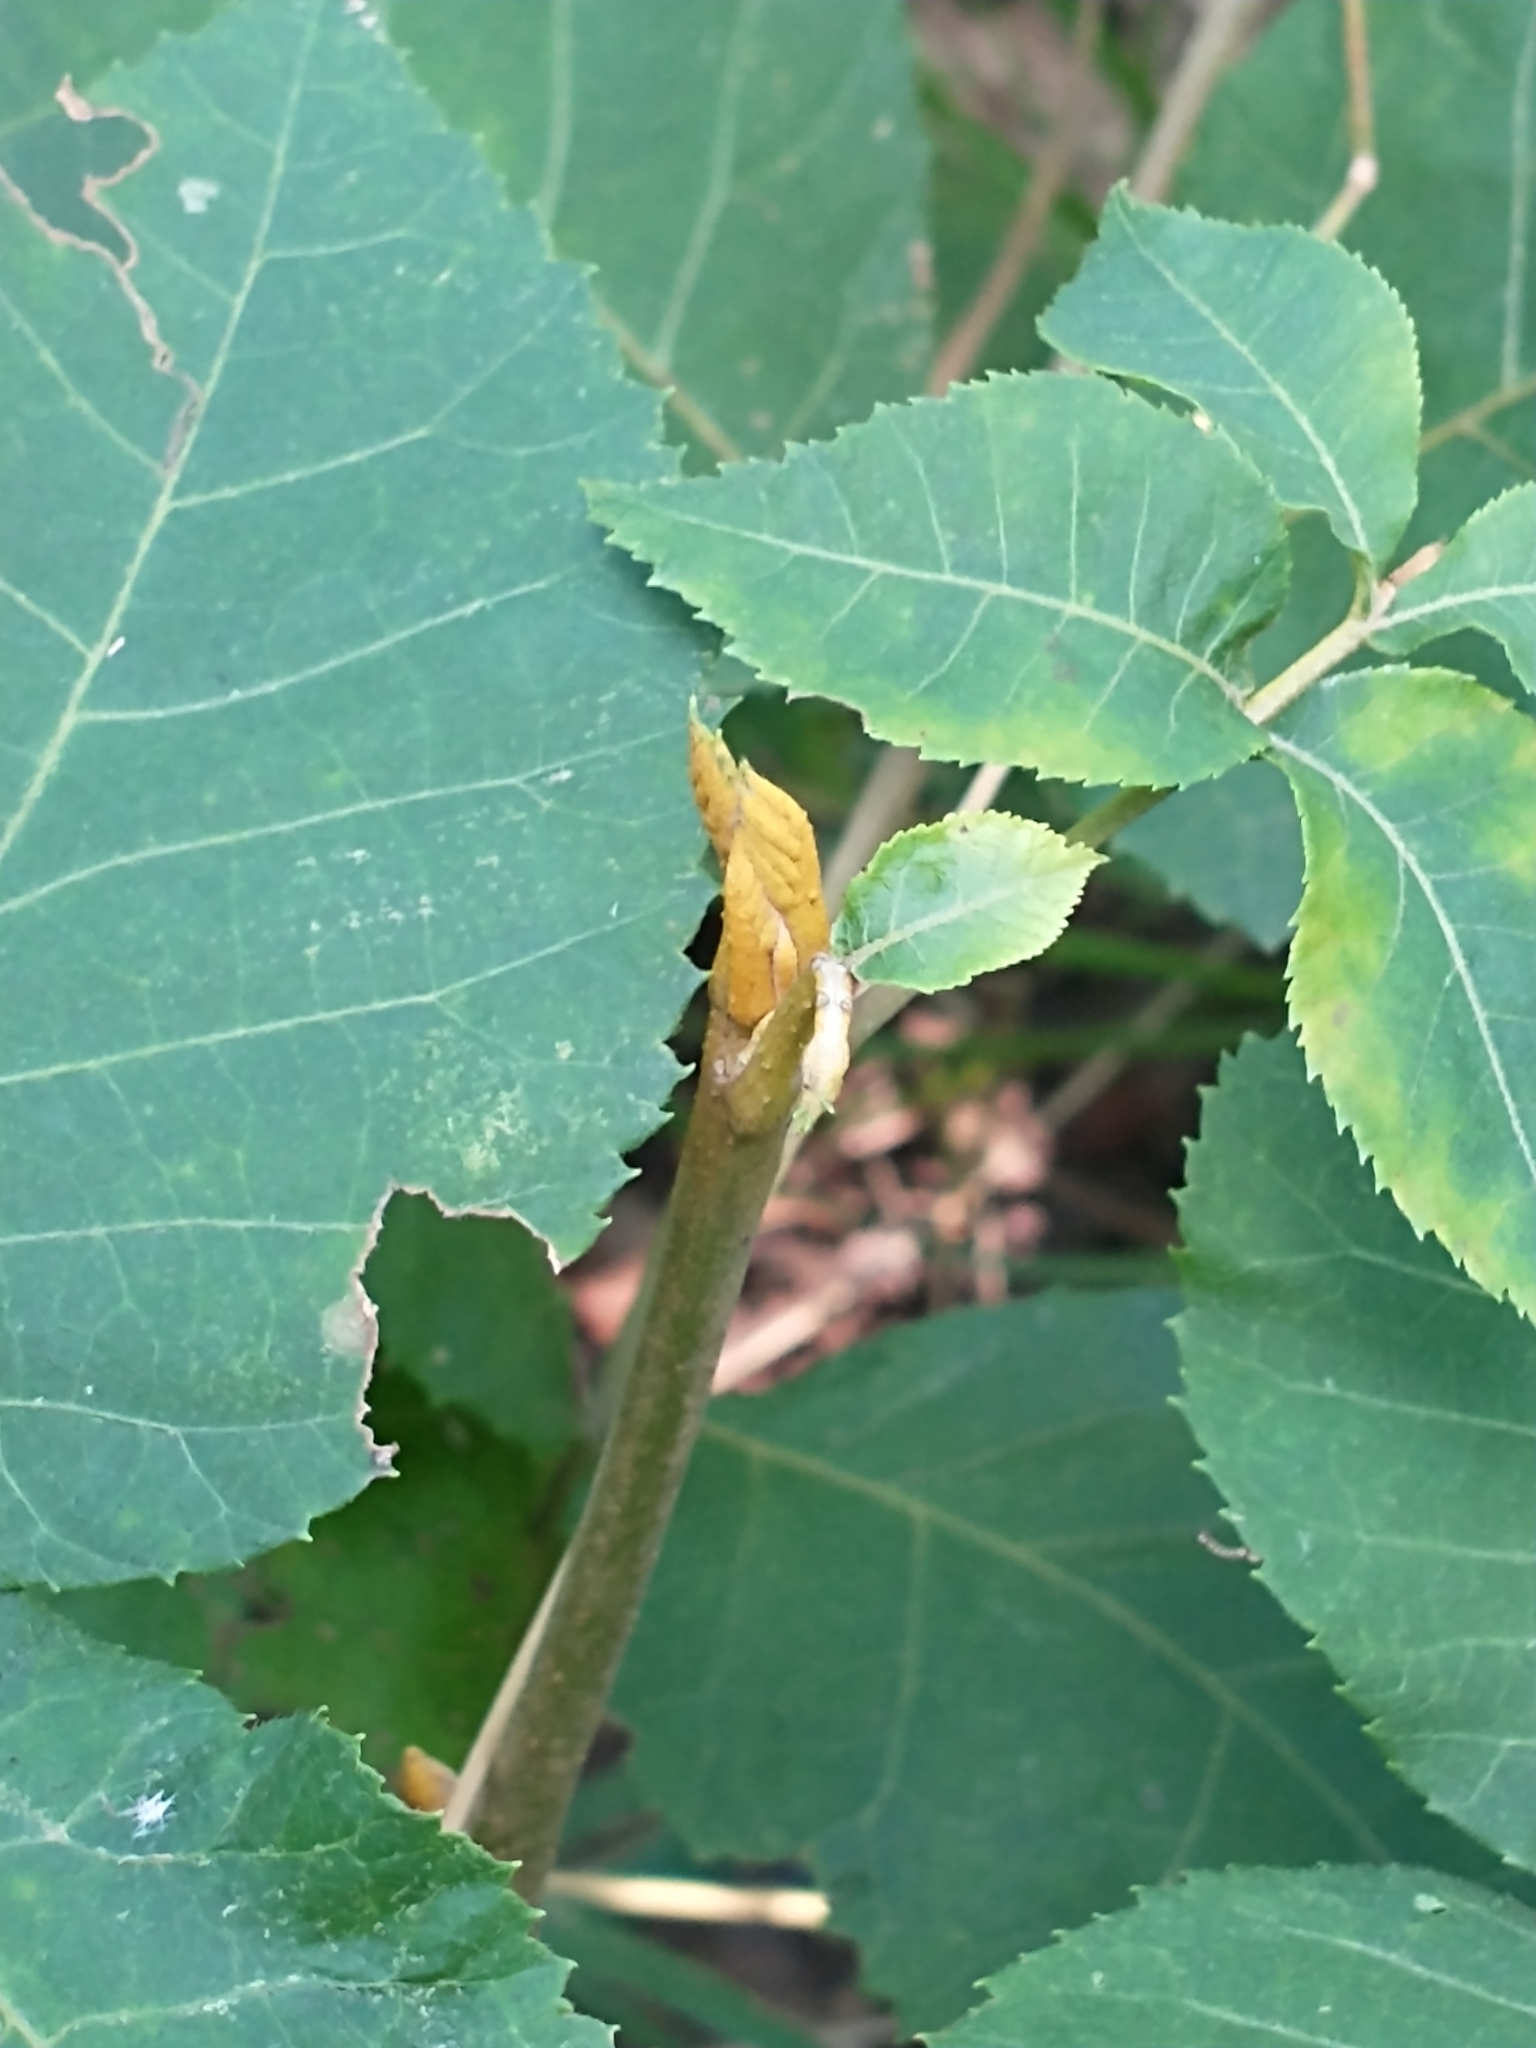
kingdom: Plantae
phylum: Tracheophyta
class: Magnoliopsida
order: Fagales
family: Juglandaceae
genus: Carya
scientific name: Carya cordiformis
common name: Bitternut hickory
